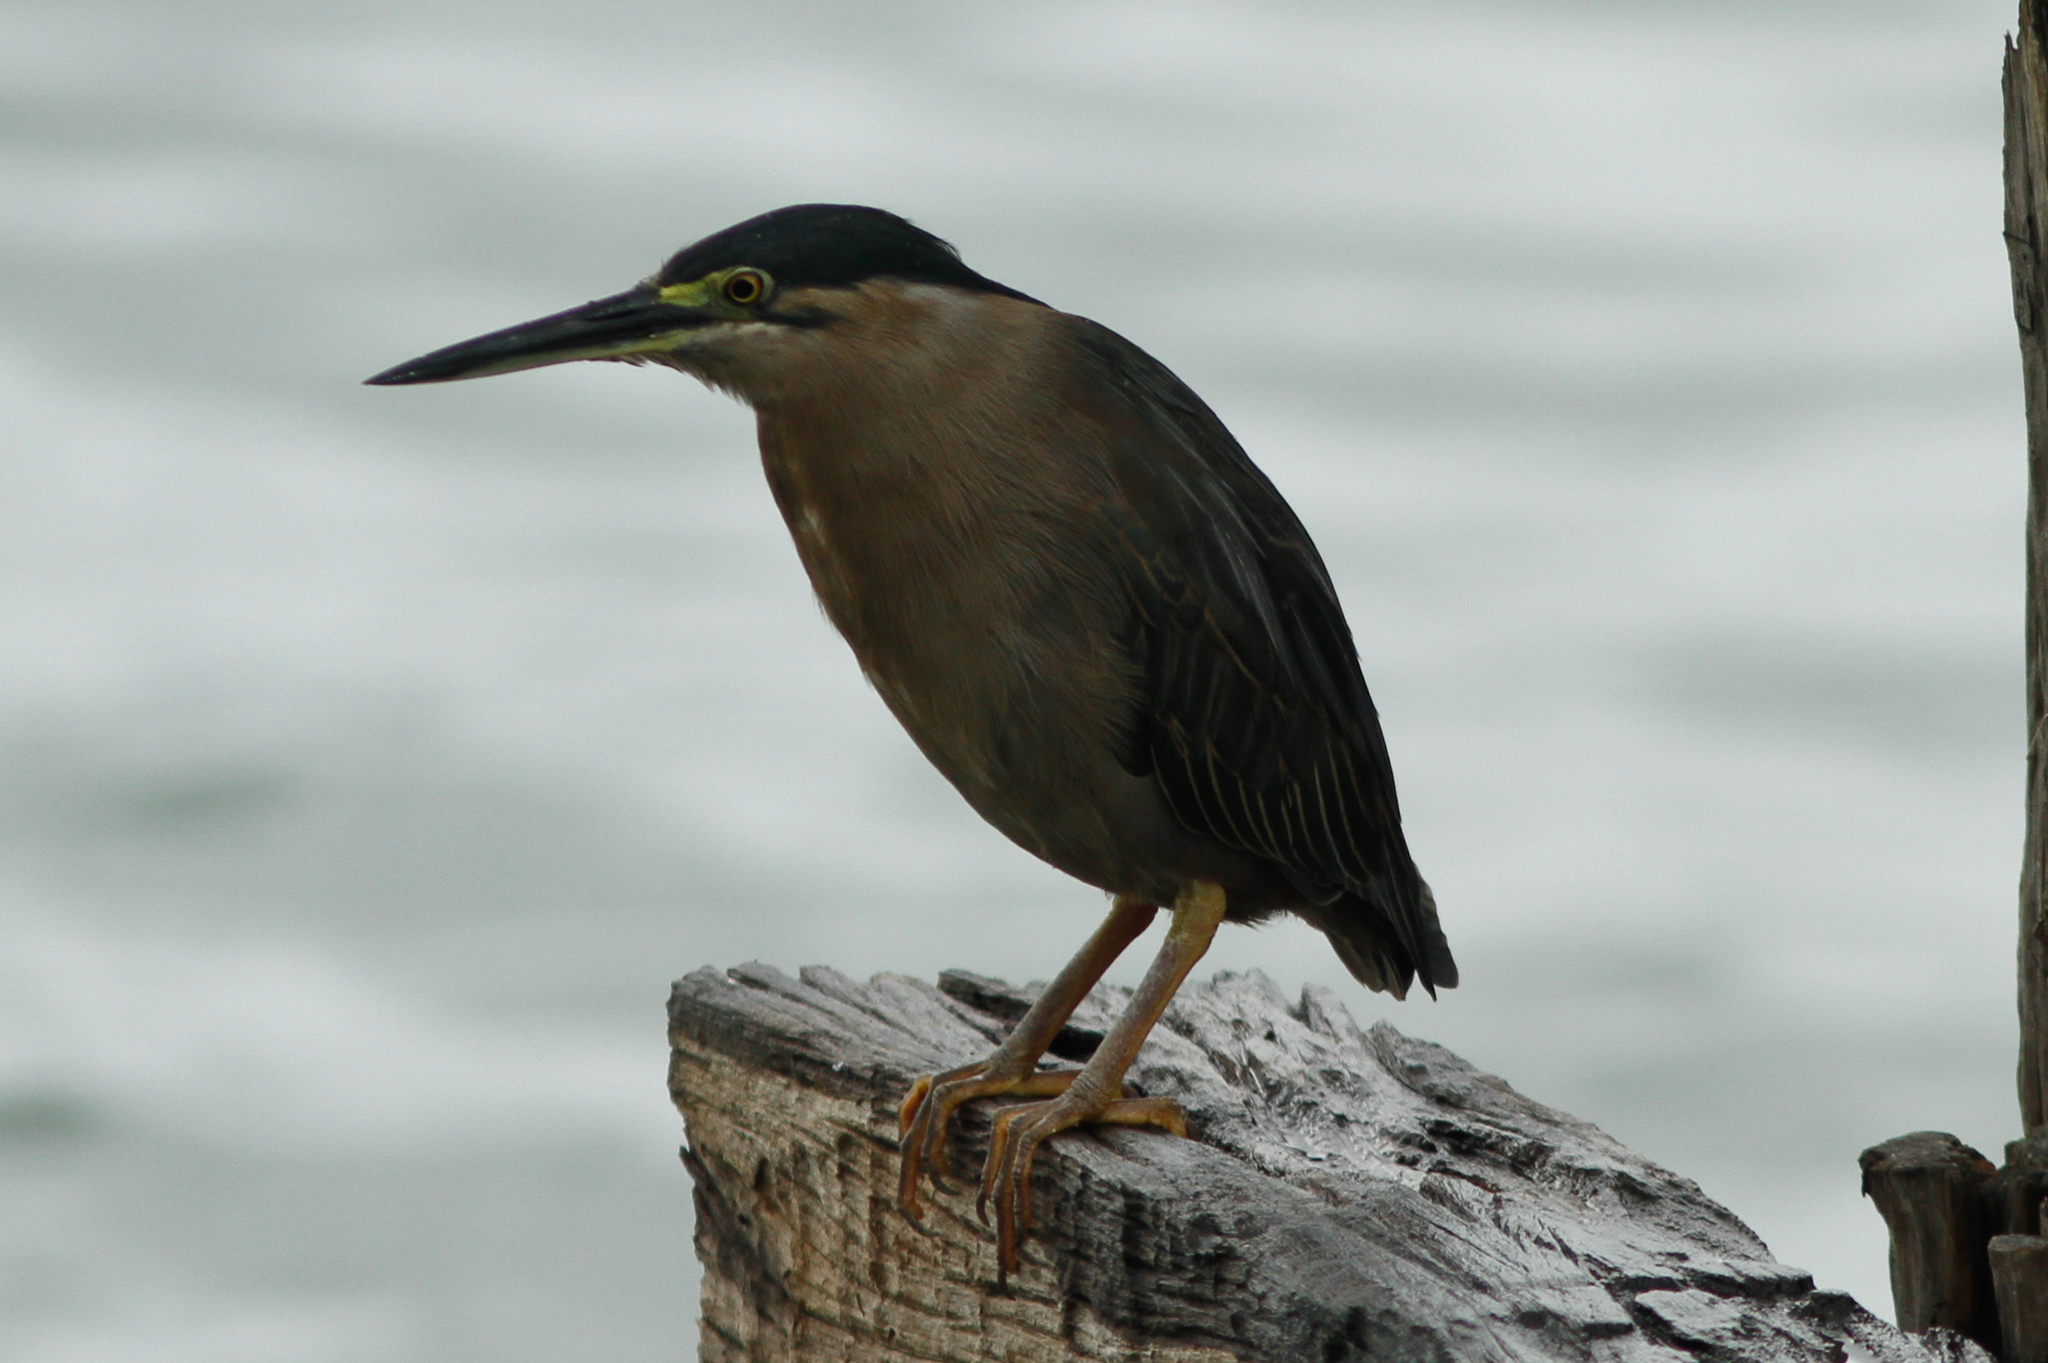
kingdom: Animalia
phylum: Chordata
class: Aves
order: Pelecaniformes
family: Ardeidae
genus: Butorides
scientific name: Butorides striata
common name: Striated heron
